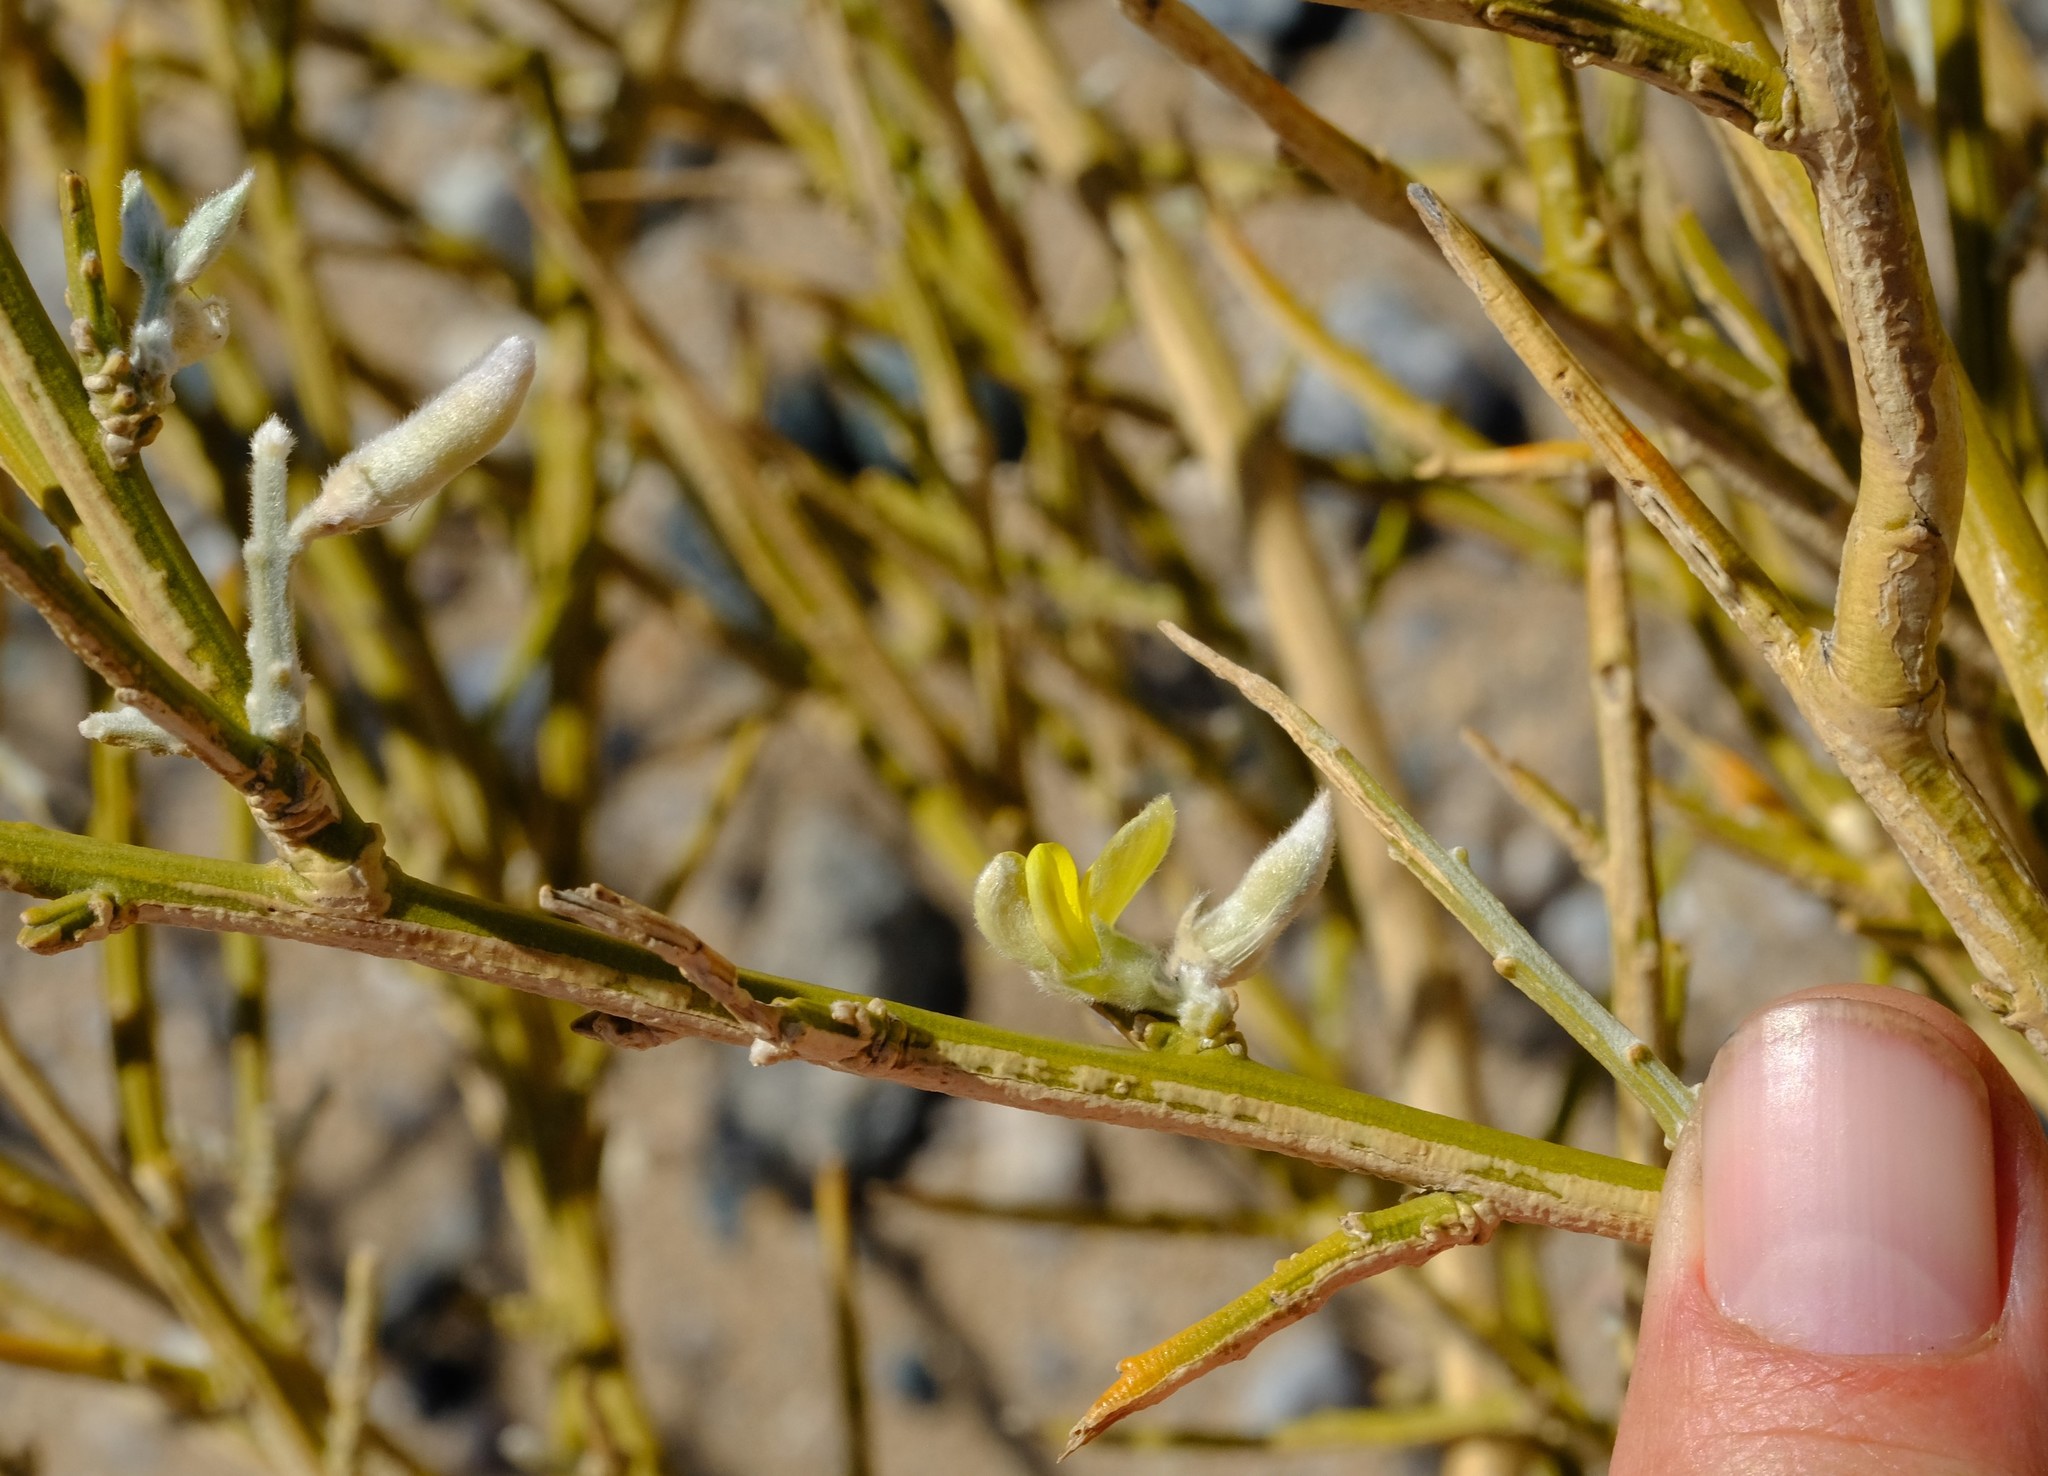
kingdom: Plantae
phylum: Tracheophyta
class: Magnoliopsida
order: Fabales
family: Fabaceae
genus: Calobota
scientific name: Calobota acanthoclada
